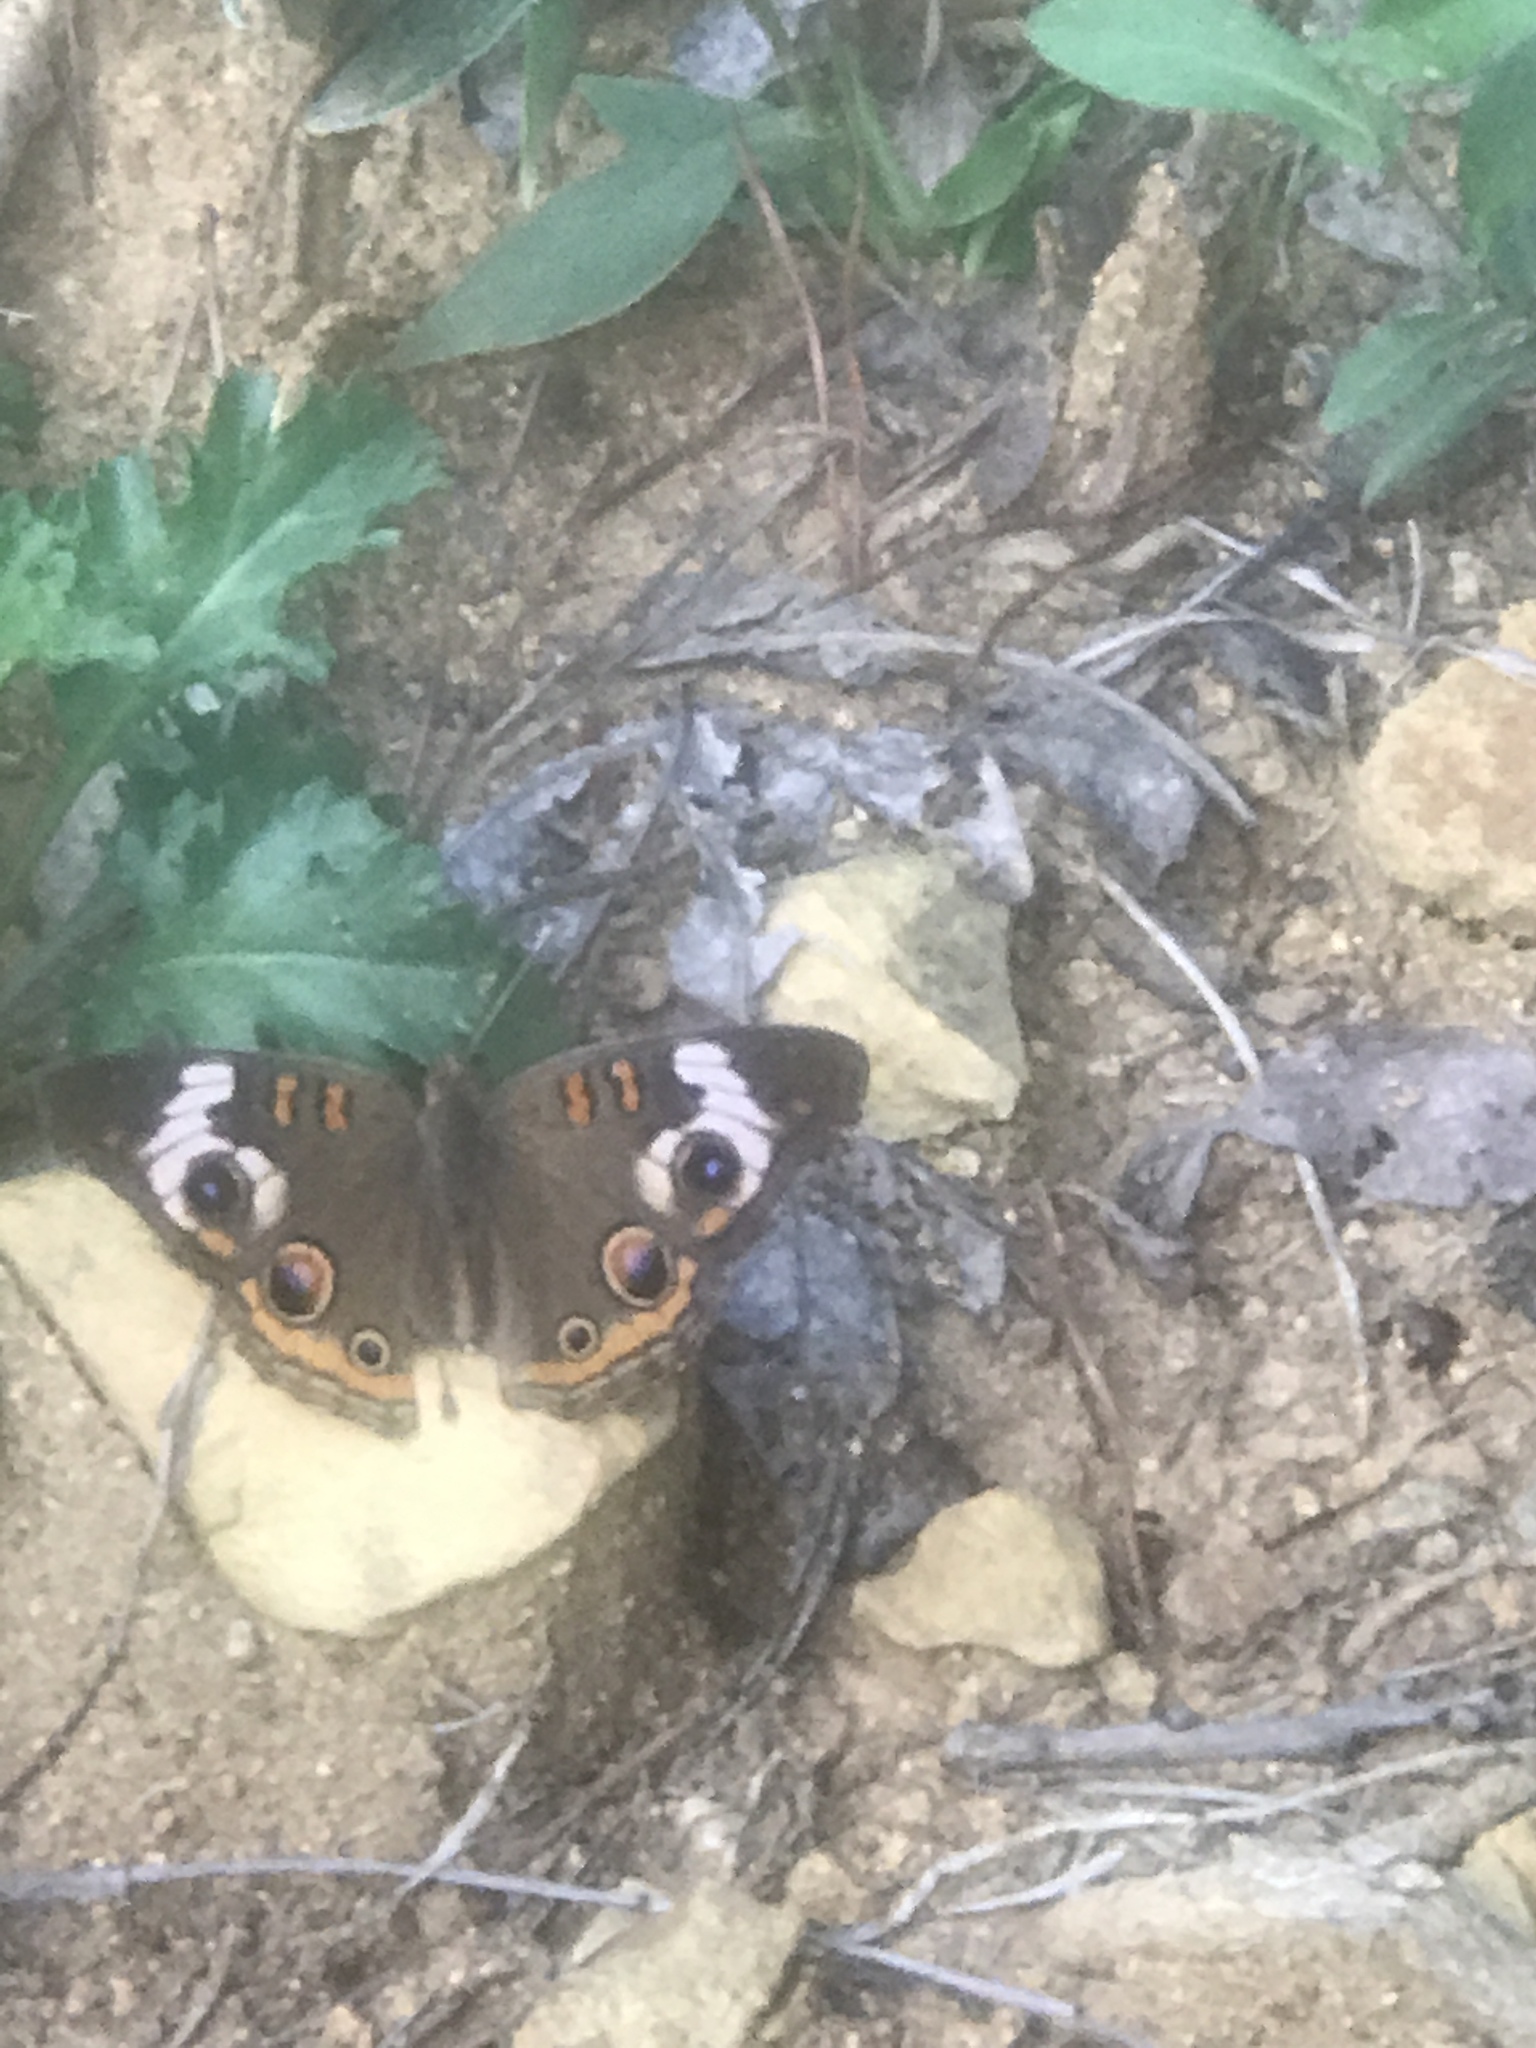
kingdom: Animalia
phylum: Arthropoda
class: Insecta
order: Lepidoptera
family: Nymphalidae
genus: Junonia
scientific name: Junonia coenia
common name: Common buckeye
